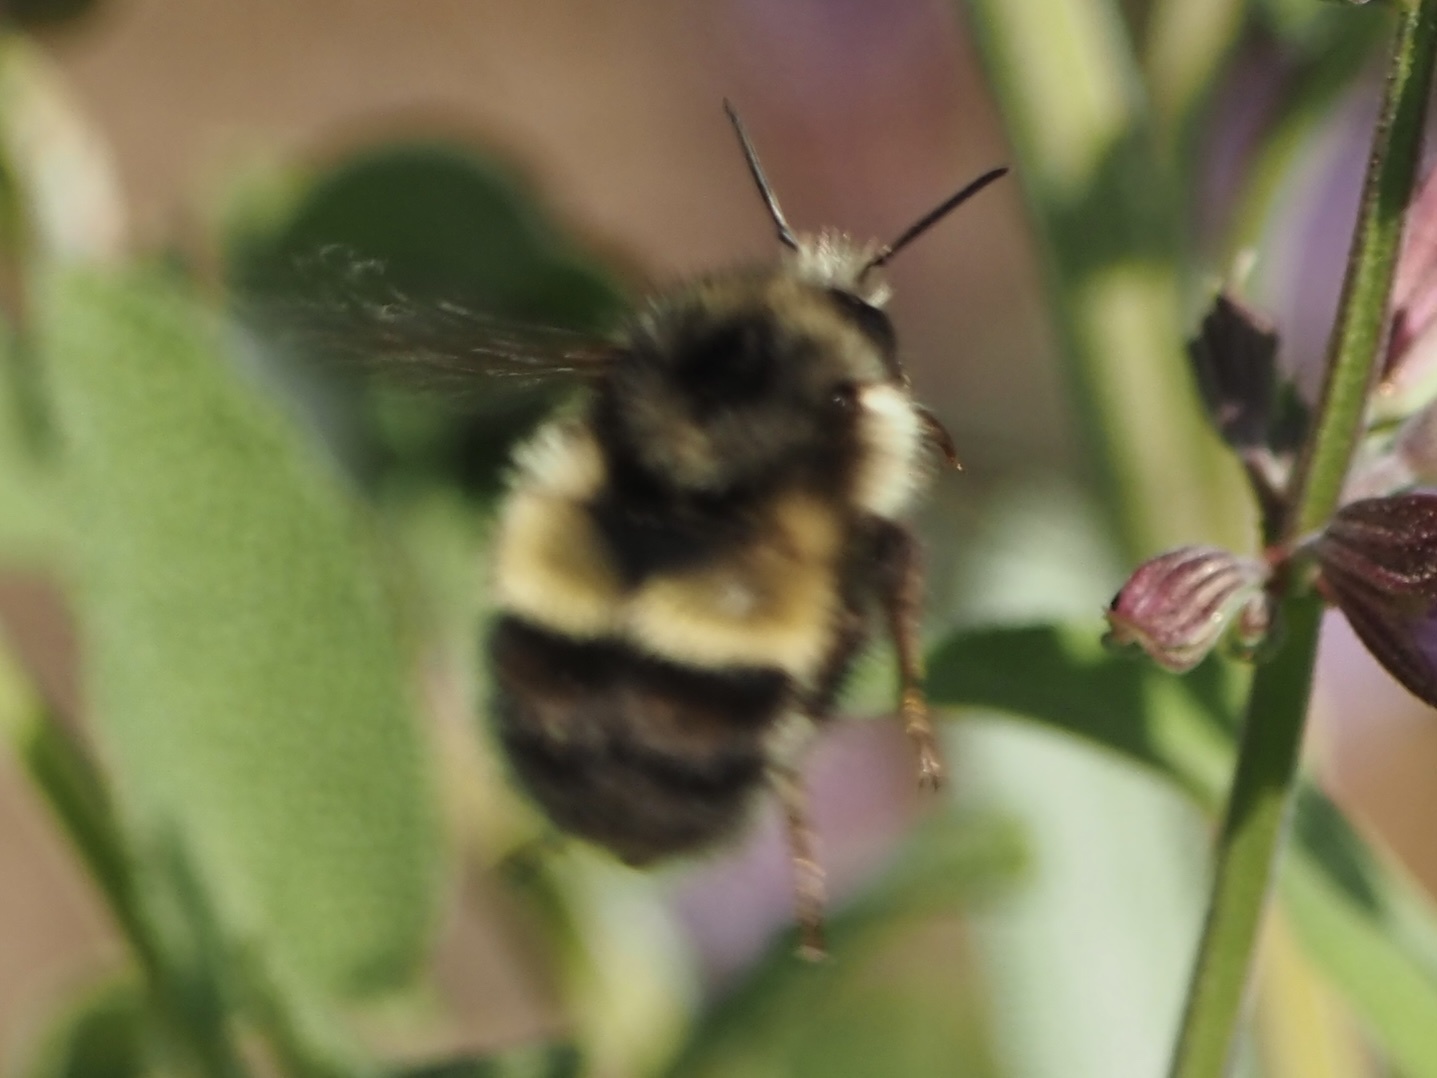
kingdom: Animalia
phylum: Arthropoda
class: Insecta
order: Hymenoptera
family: Apidae
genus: Bombus
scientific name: Bombus flavifrons
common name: Yellow head bumble bee
